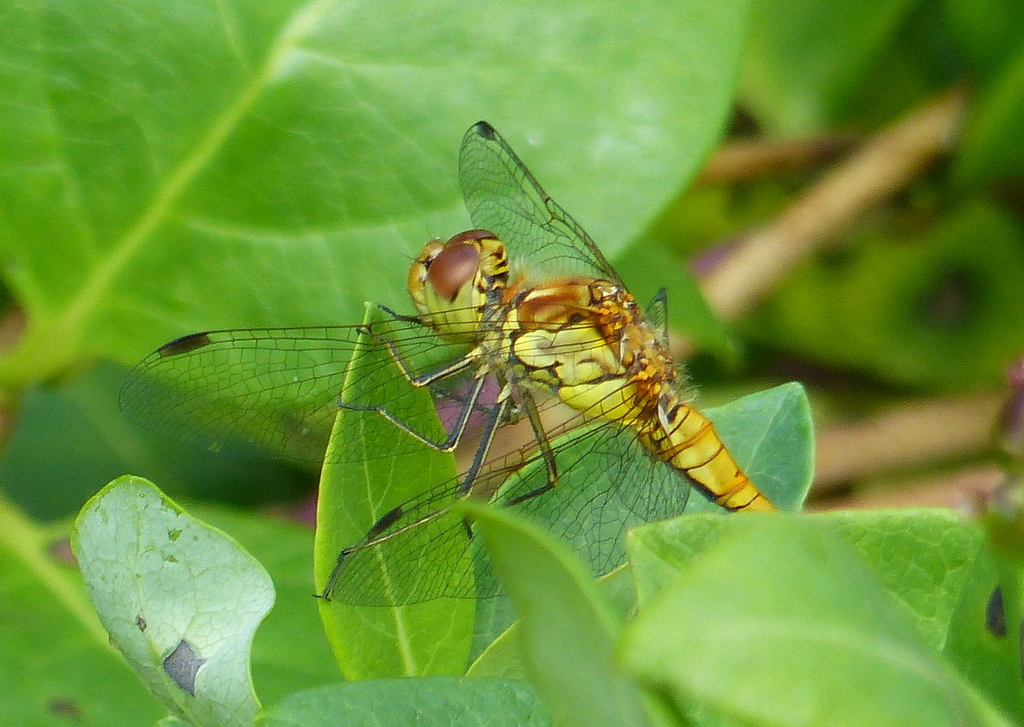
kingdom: Animalia
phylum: Arthropoda
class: Insecta
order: Odonata
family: Libellulidae
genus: Sympetrum
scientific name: Sympetrum striolatum
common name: Common darter
